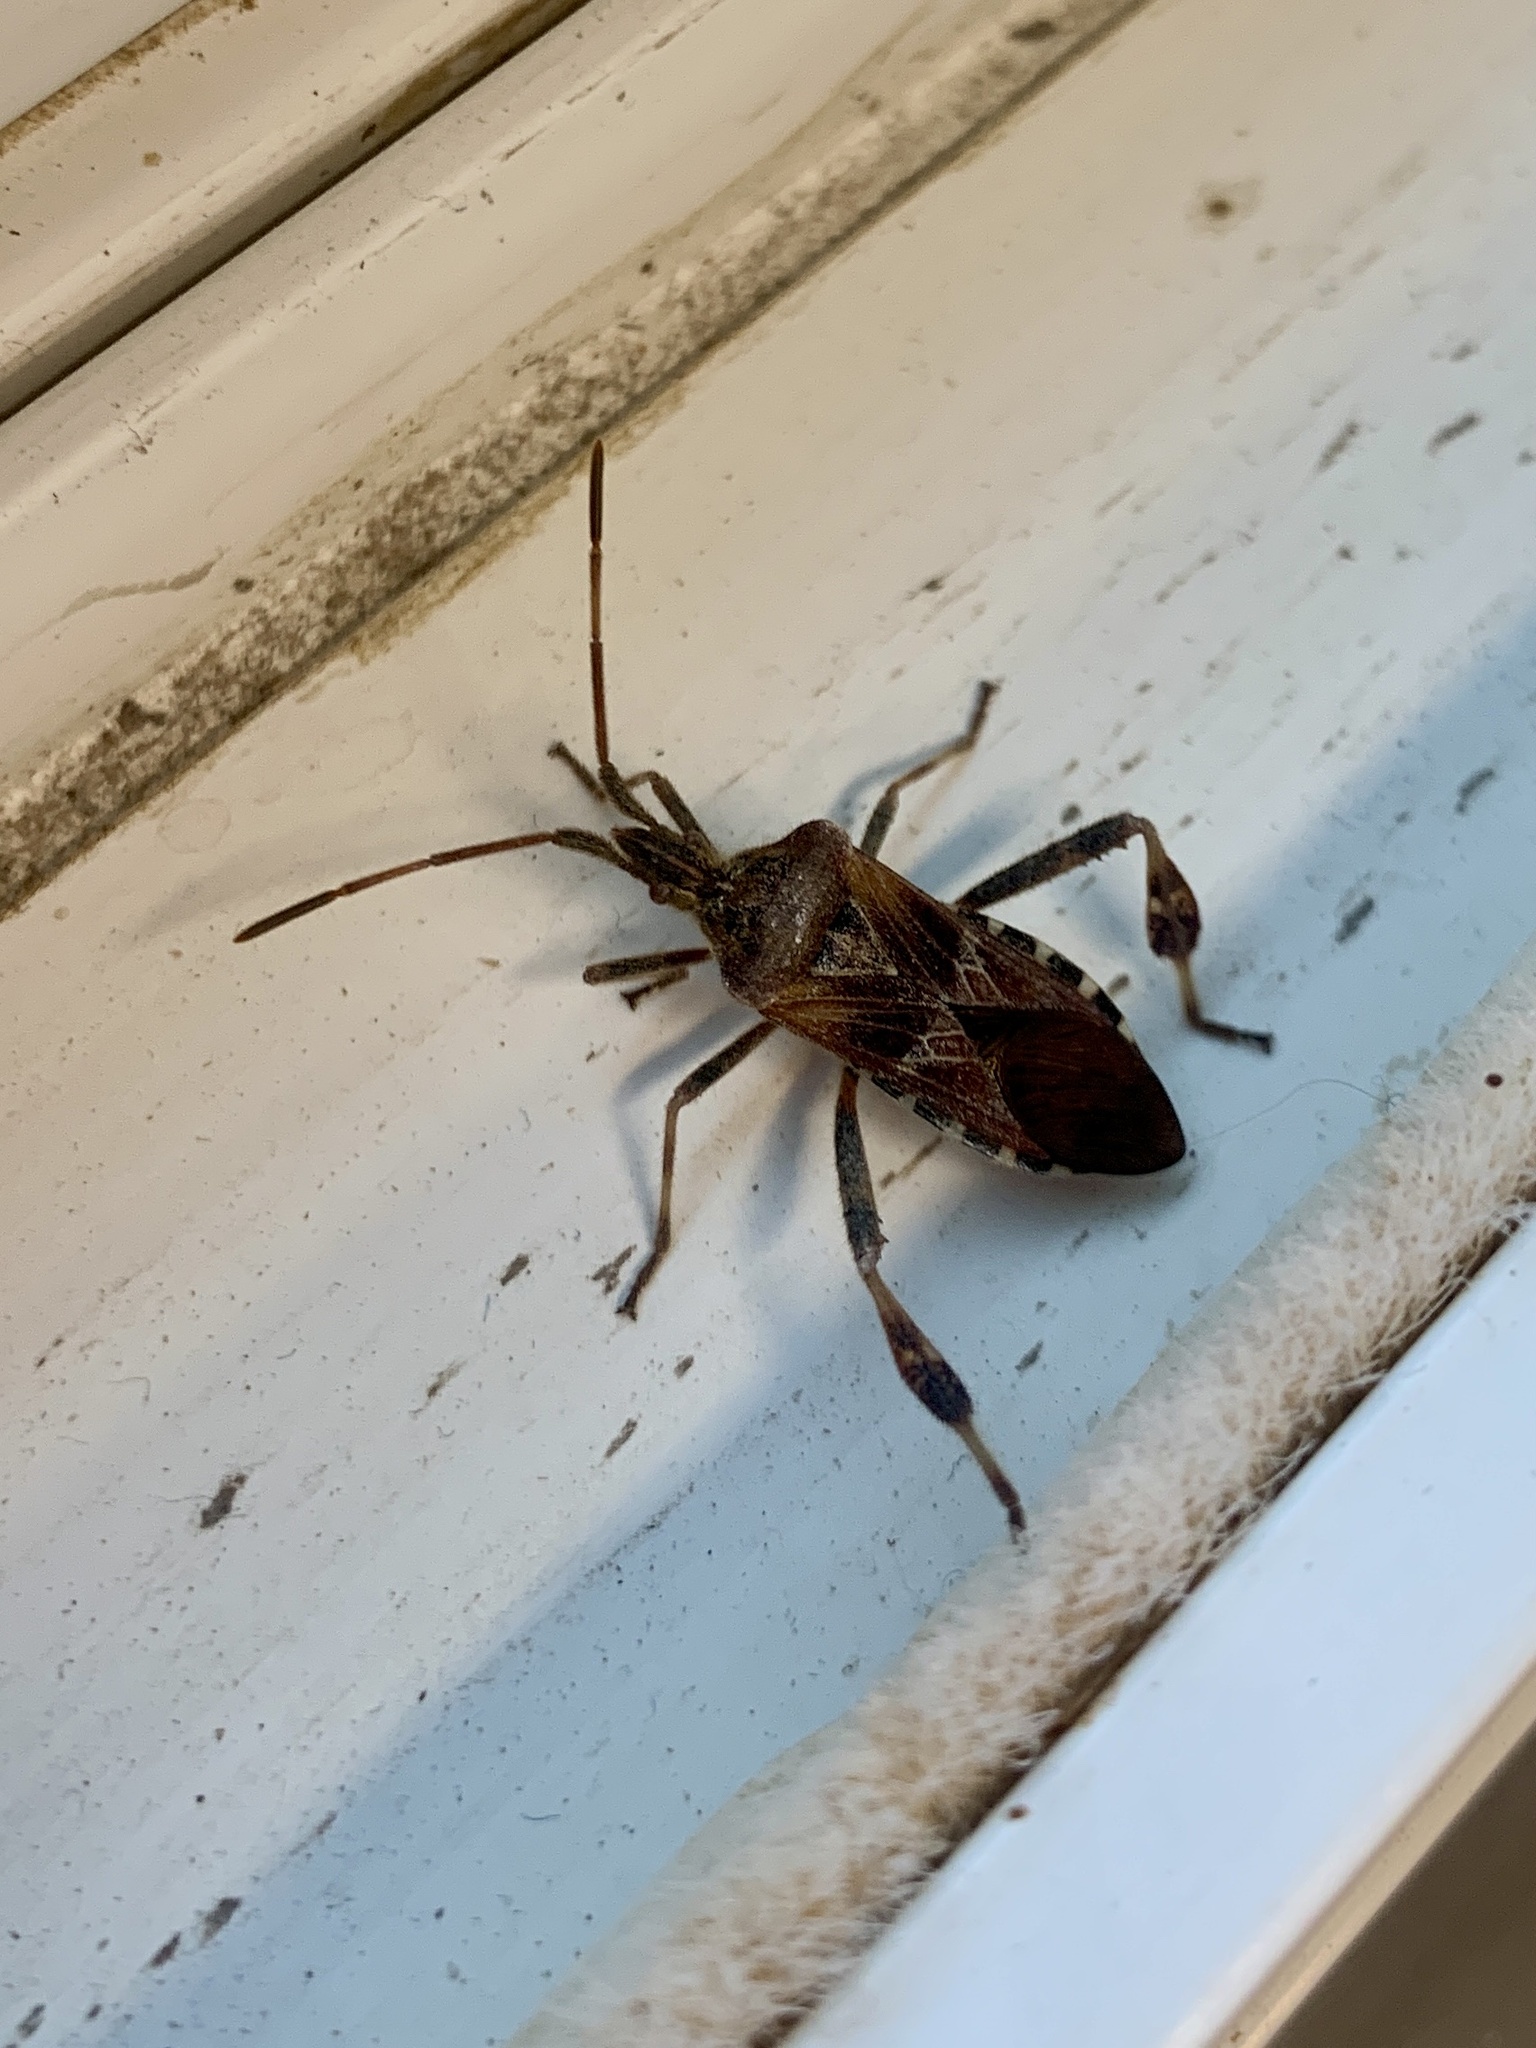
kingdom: Animalia
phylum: Arthropoda
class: Insecta
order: Hemiptera
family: Coreidae
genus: Leptoglossus
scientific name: Leptoglossus occidentalis
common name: Western conifer-seed bug
